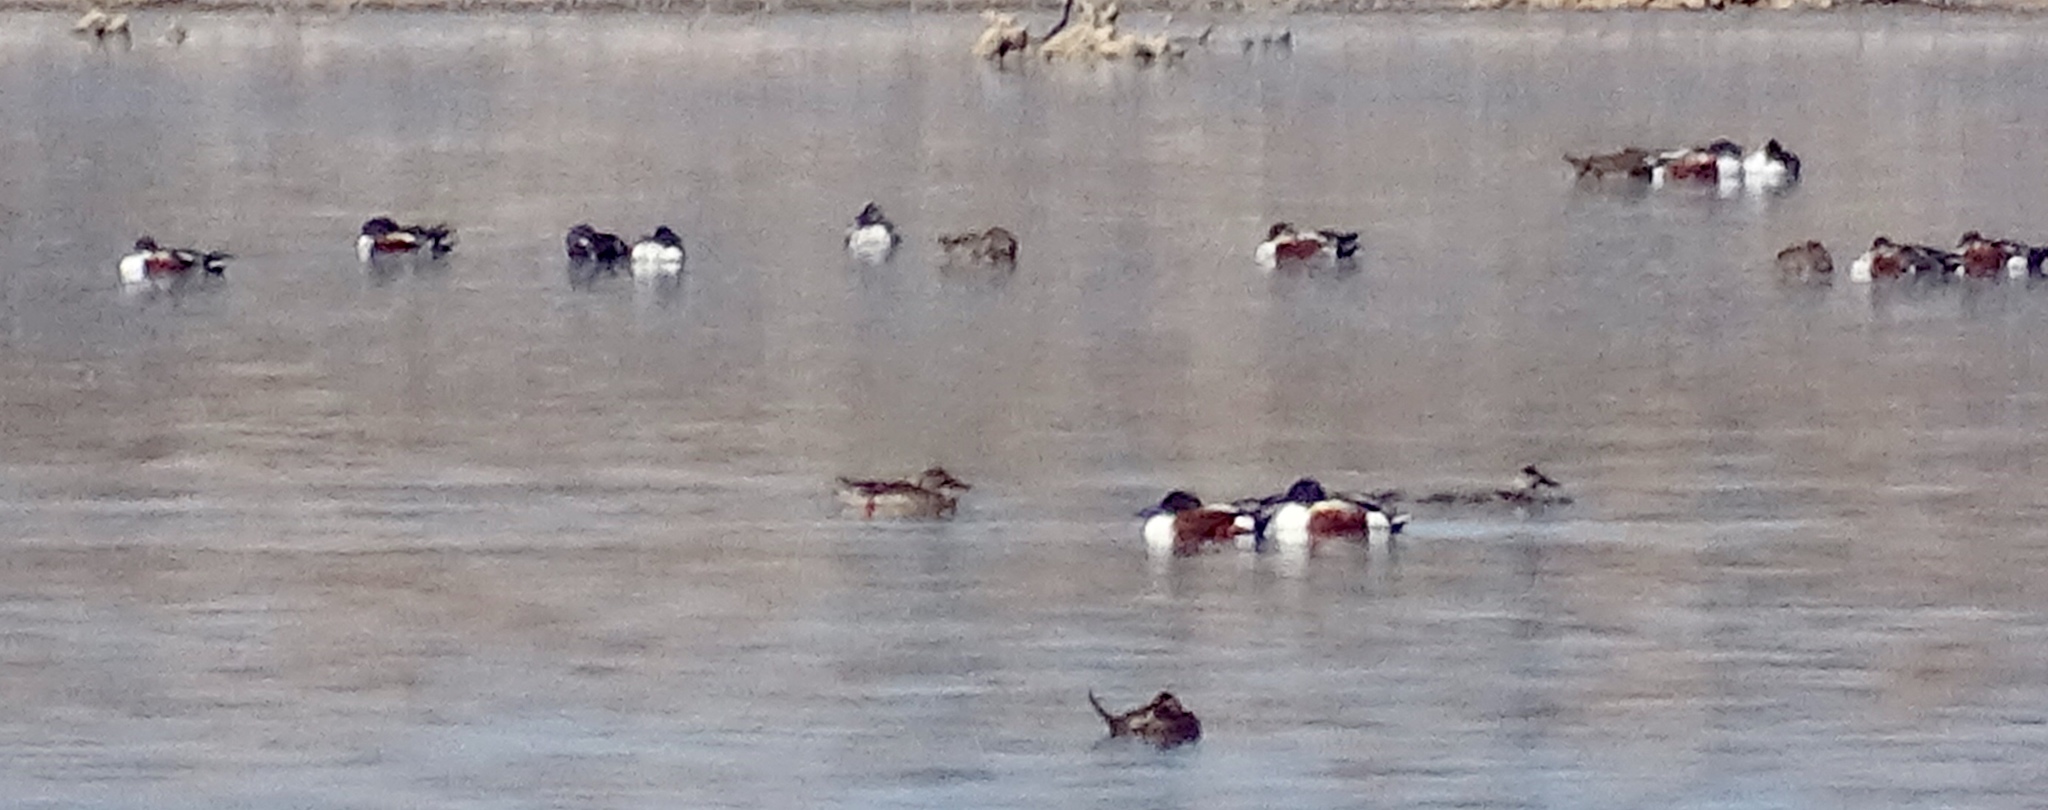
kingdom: Animalia
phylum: Chordata
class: Aves
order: Anseriformes
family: Anatidae
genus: Spatula
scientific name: Spatula clypeata
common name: Northern shoveler
